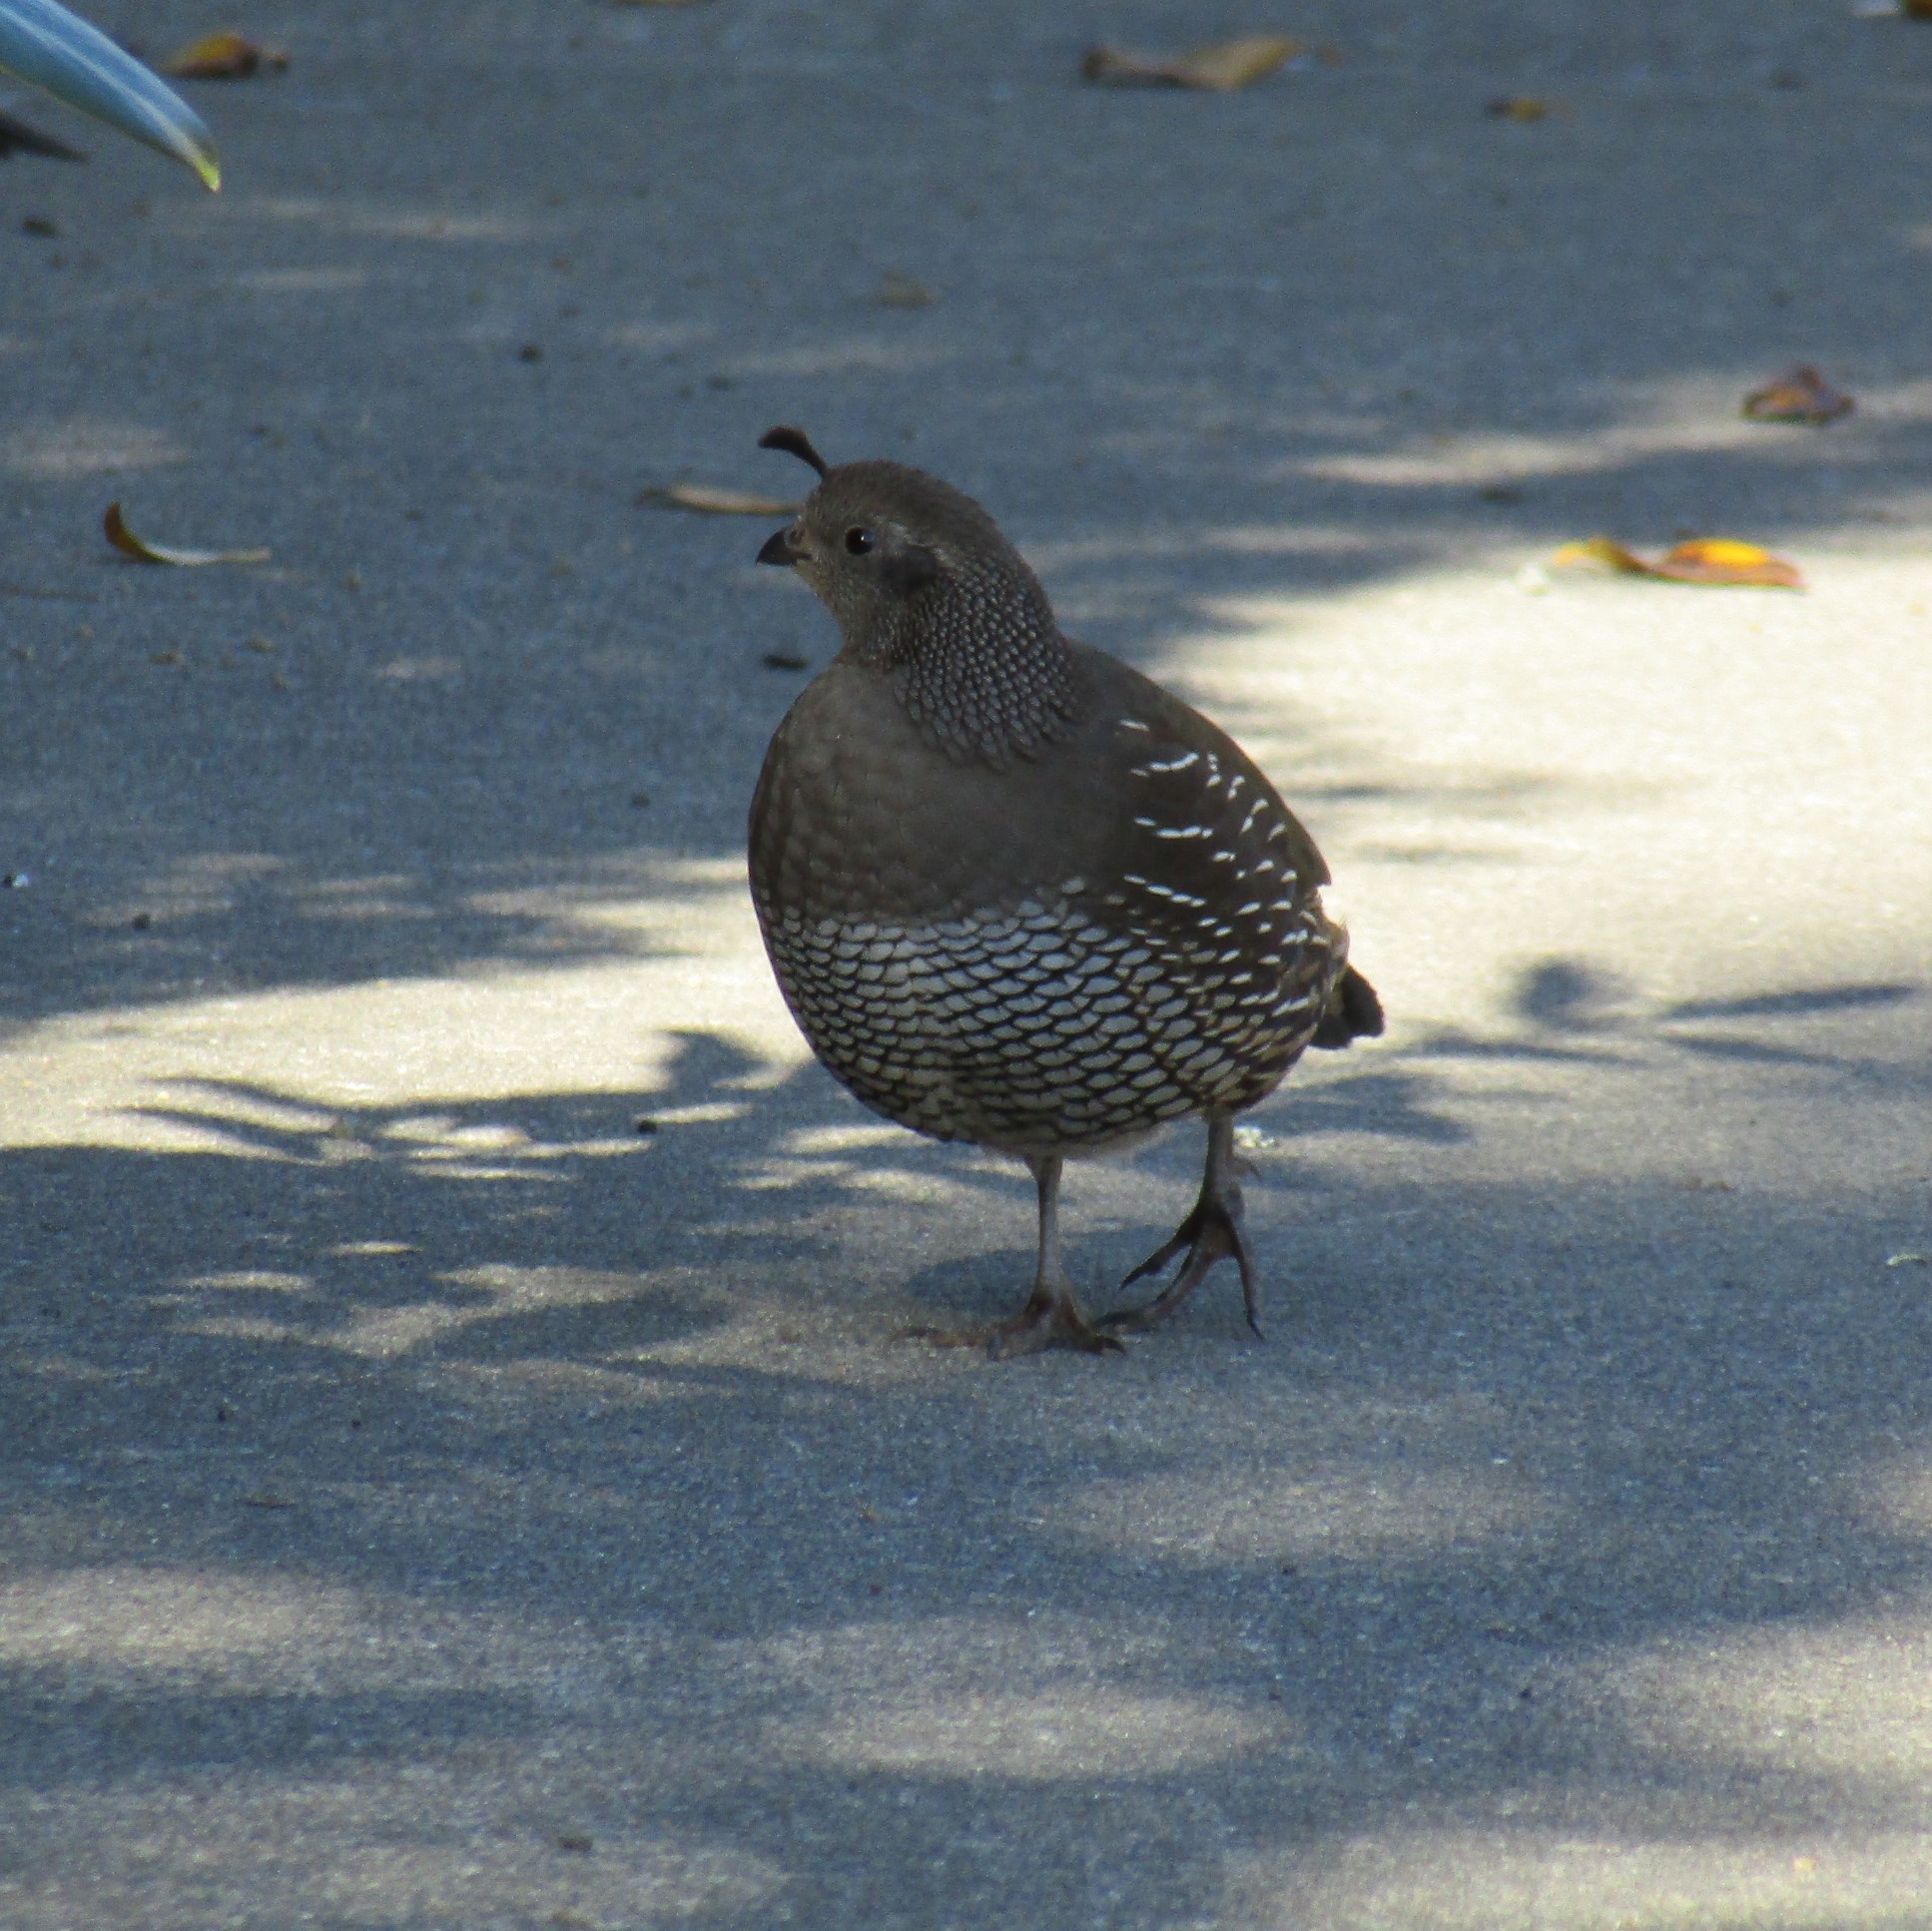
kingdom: Animalia
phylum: Chordata
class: Aves
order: Galliformes
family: Odontophoridae
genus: Callipepla
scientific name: Callipepla californica
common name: California quail
